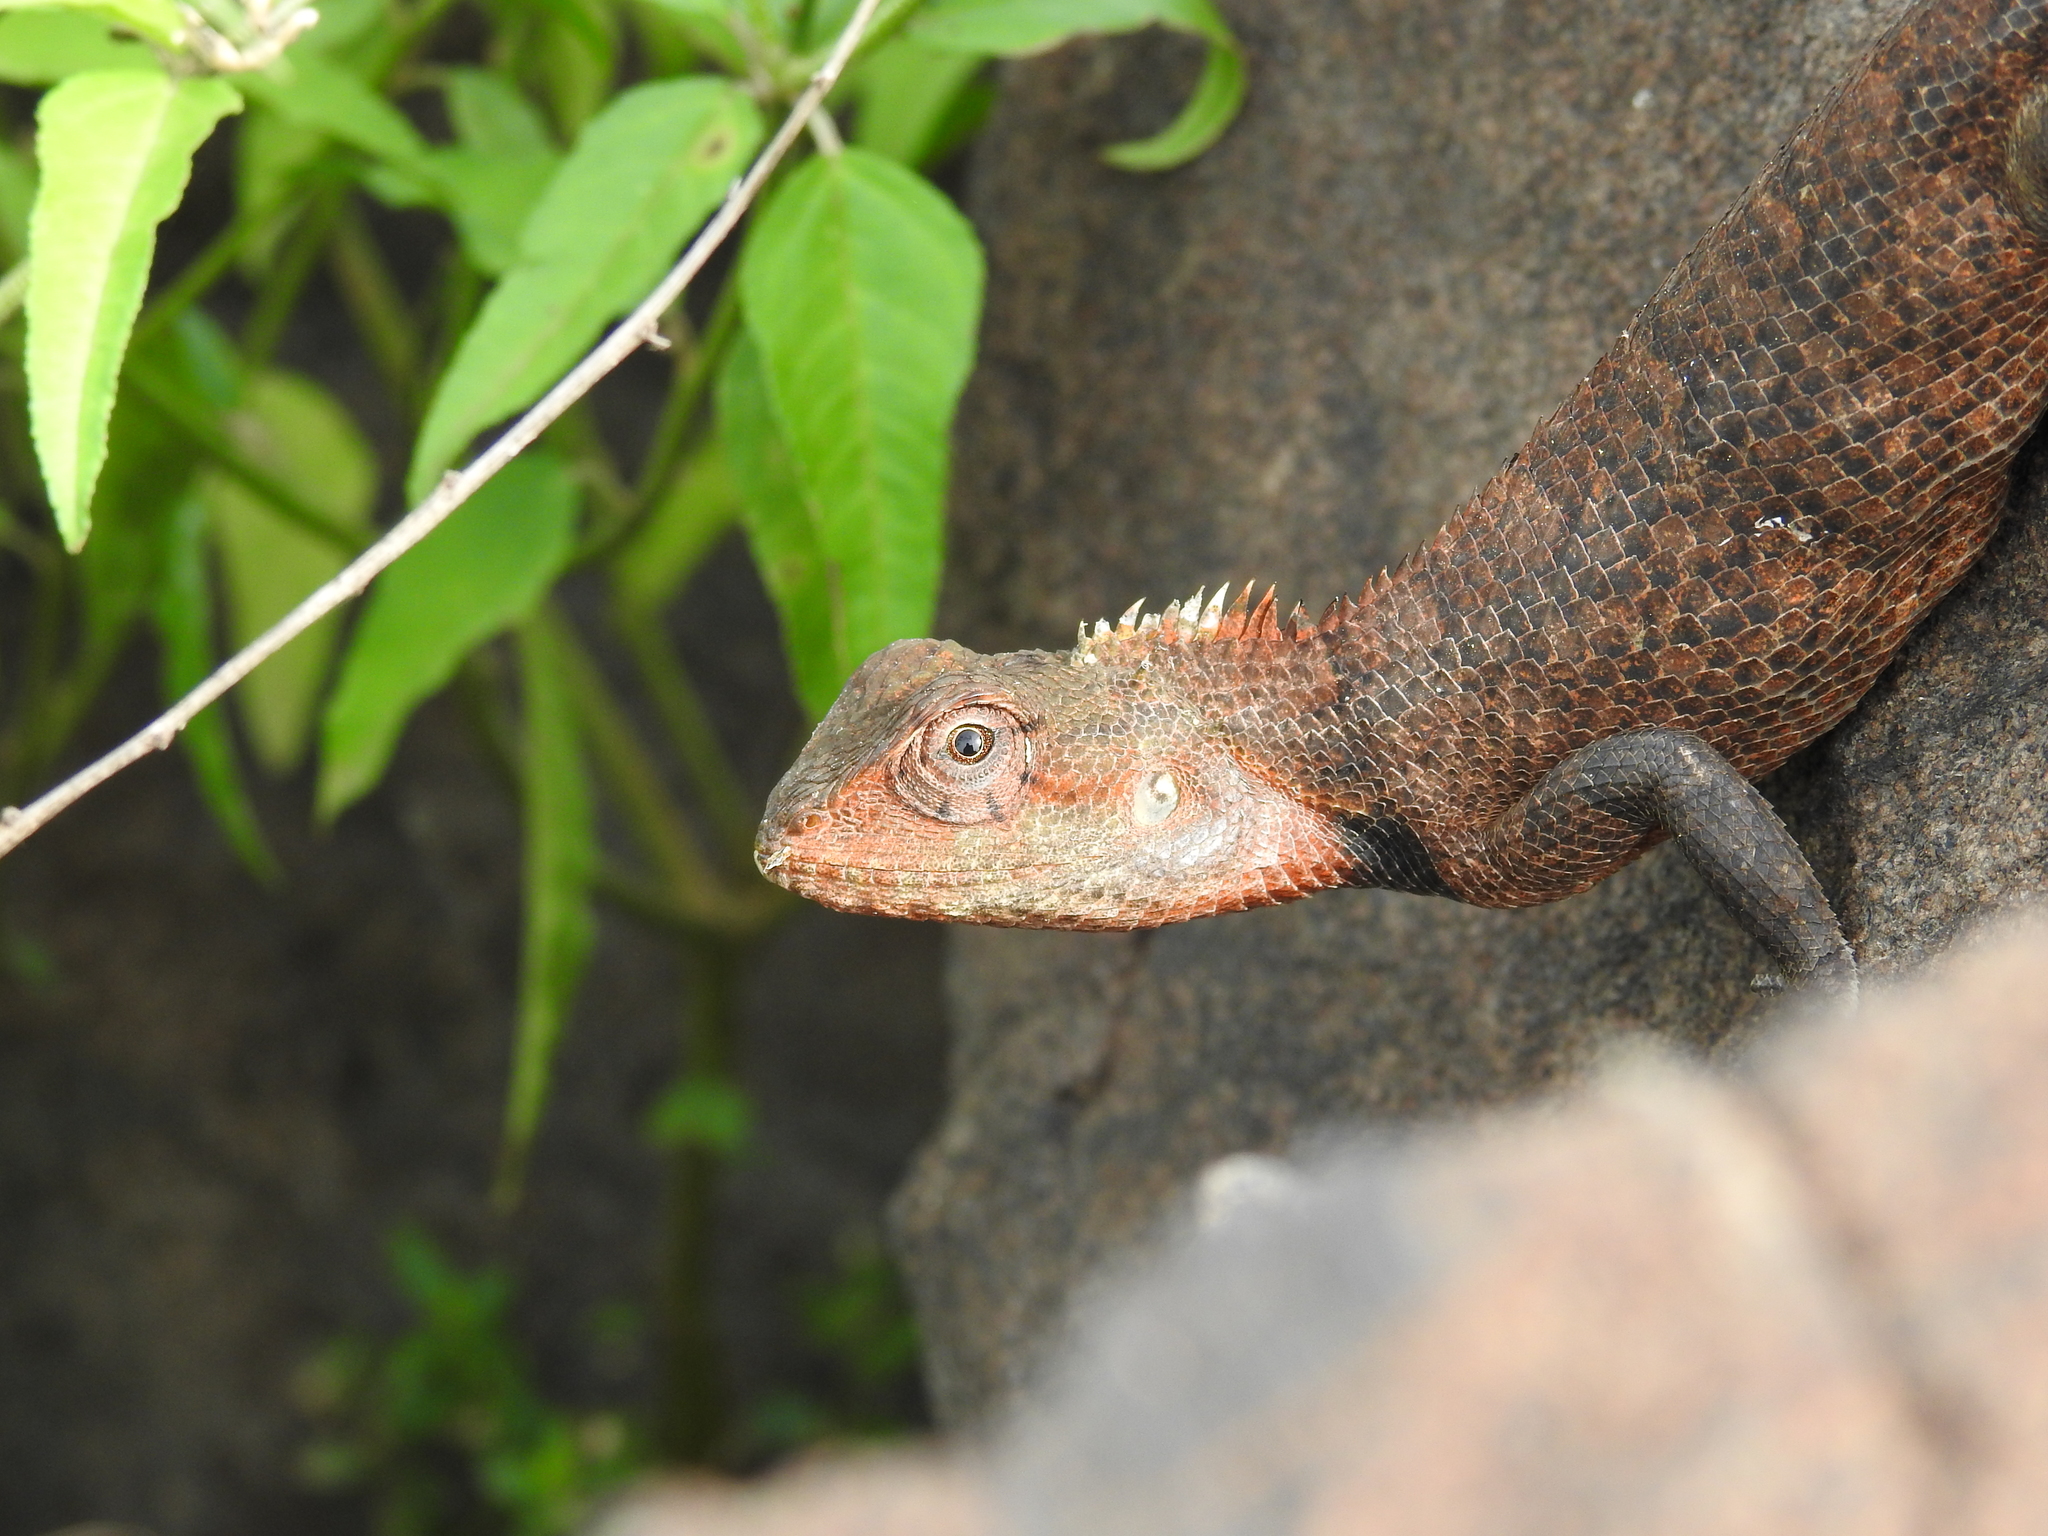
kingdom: Animalia
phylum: Chordata
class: Squamata
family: Agamidae
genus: Calotes
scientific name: Calotes versicolor
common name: Oriental garden lizard
